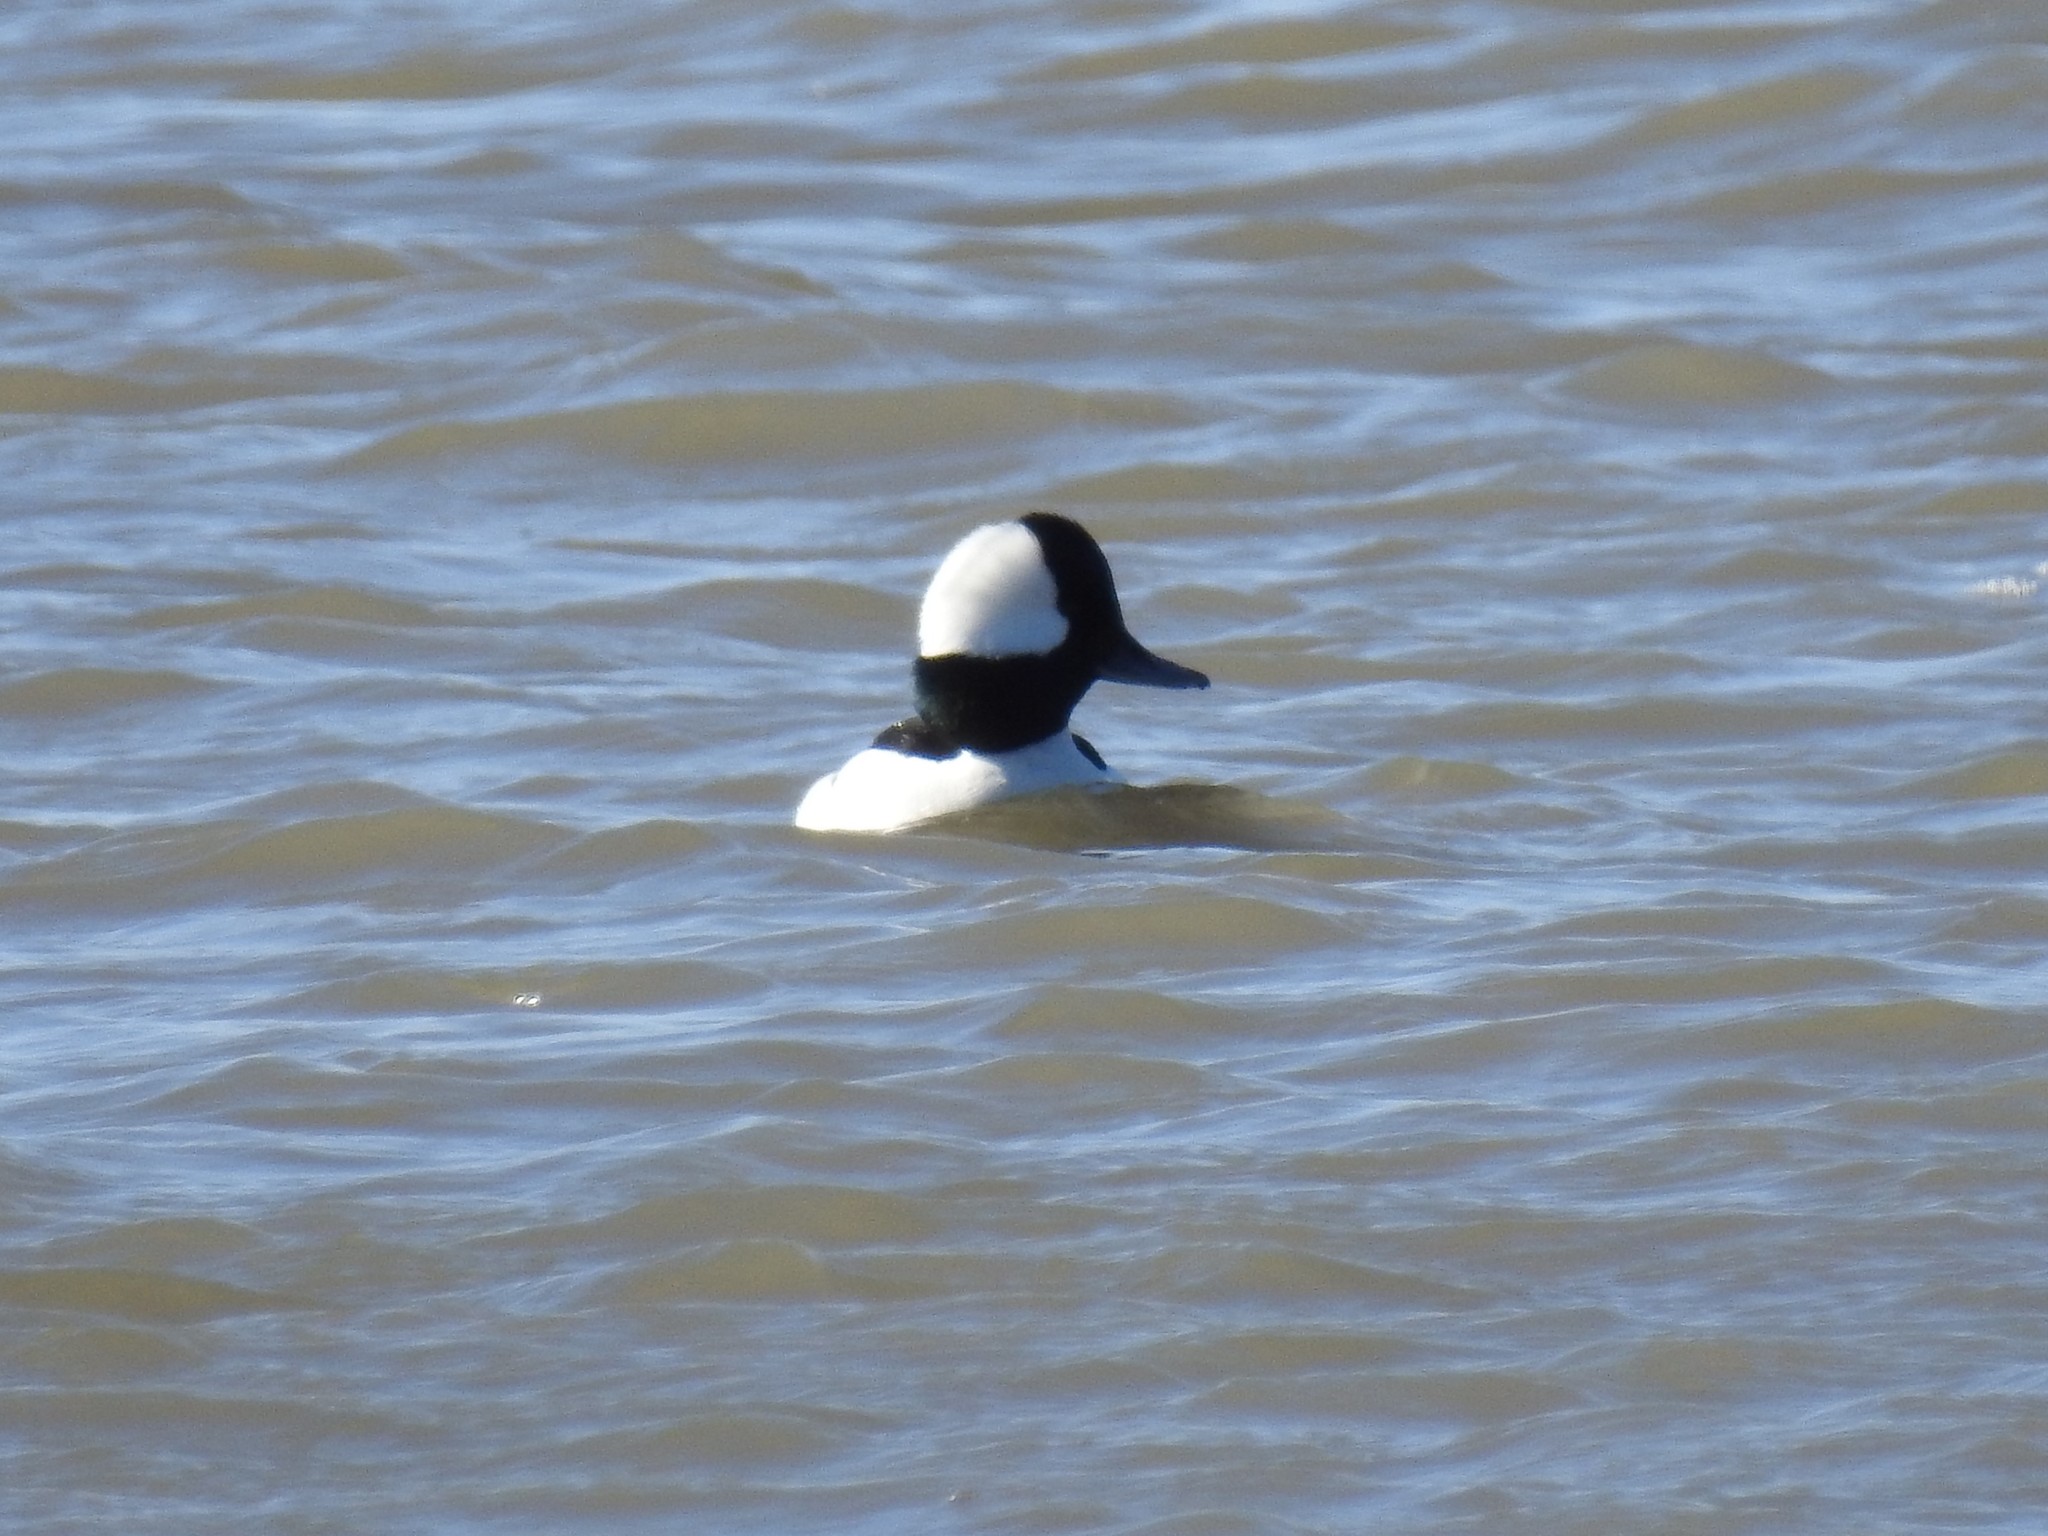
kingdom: Animalia
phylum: Chordata
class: Aves
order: Anseriformes
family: Anatidae
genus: Bucephala
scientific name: Bucephala albeola
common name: Bufflehead
